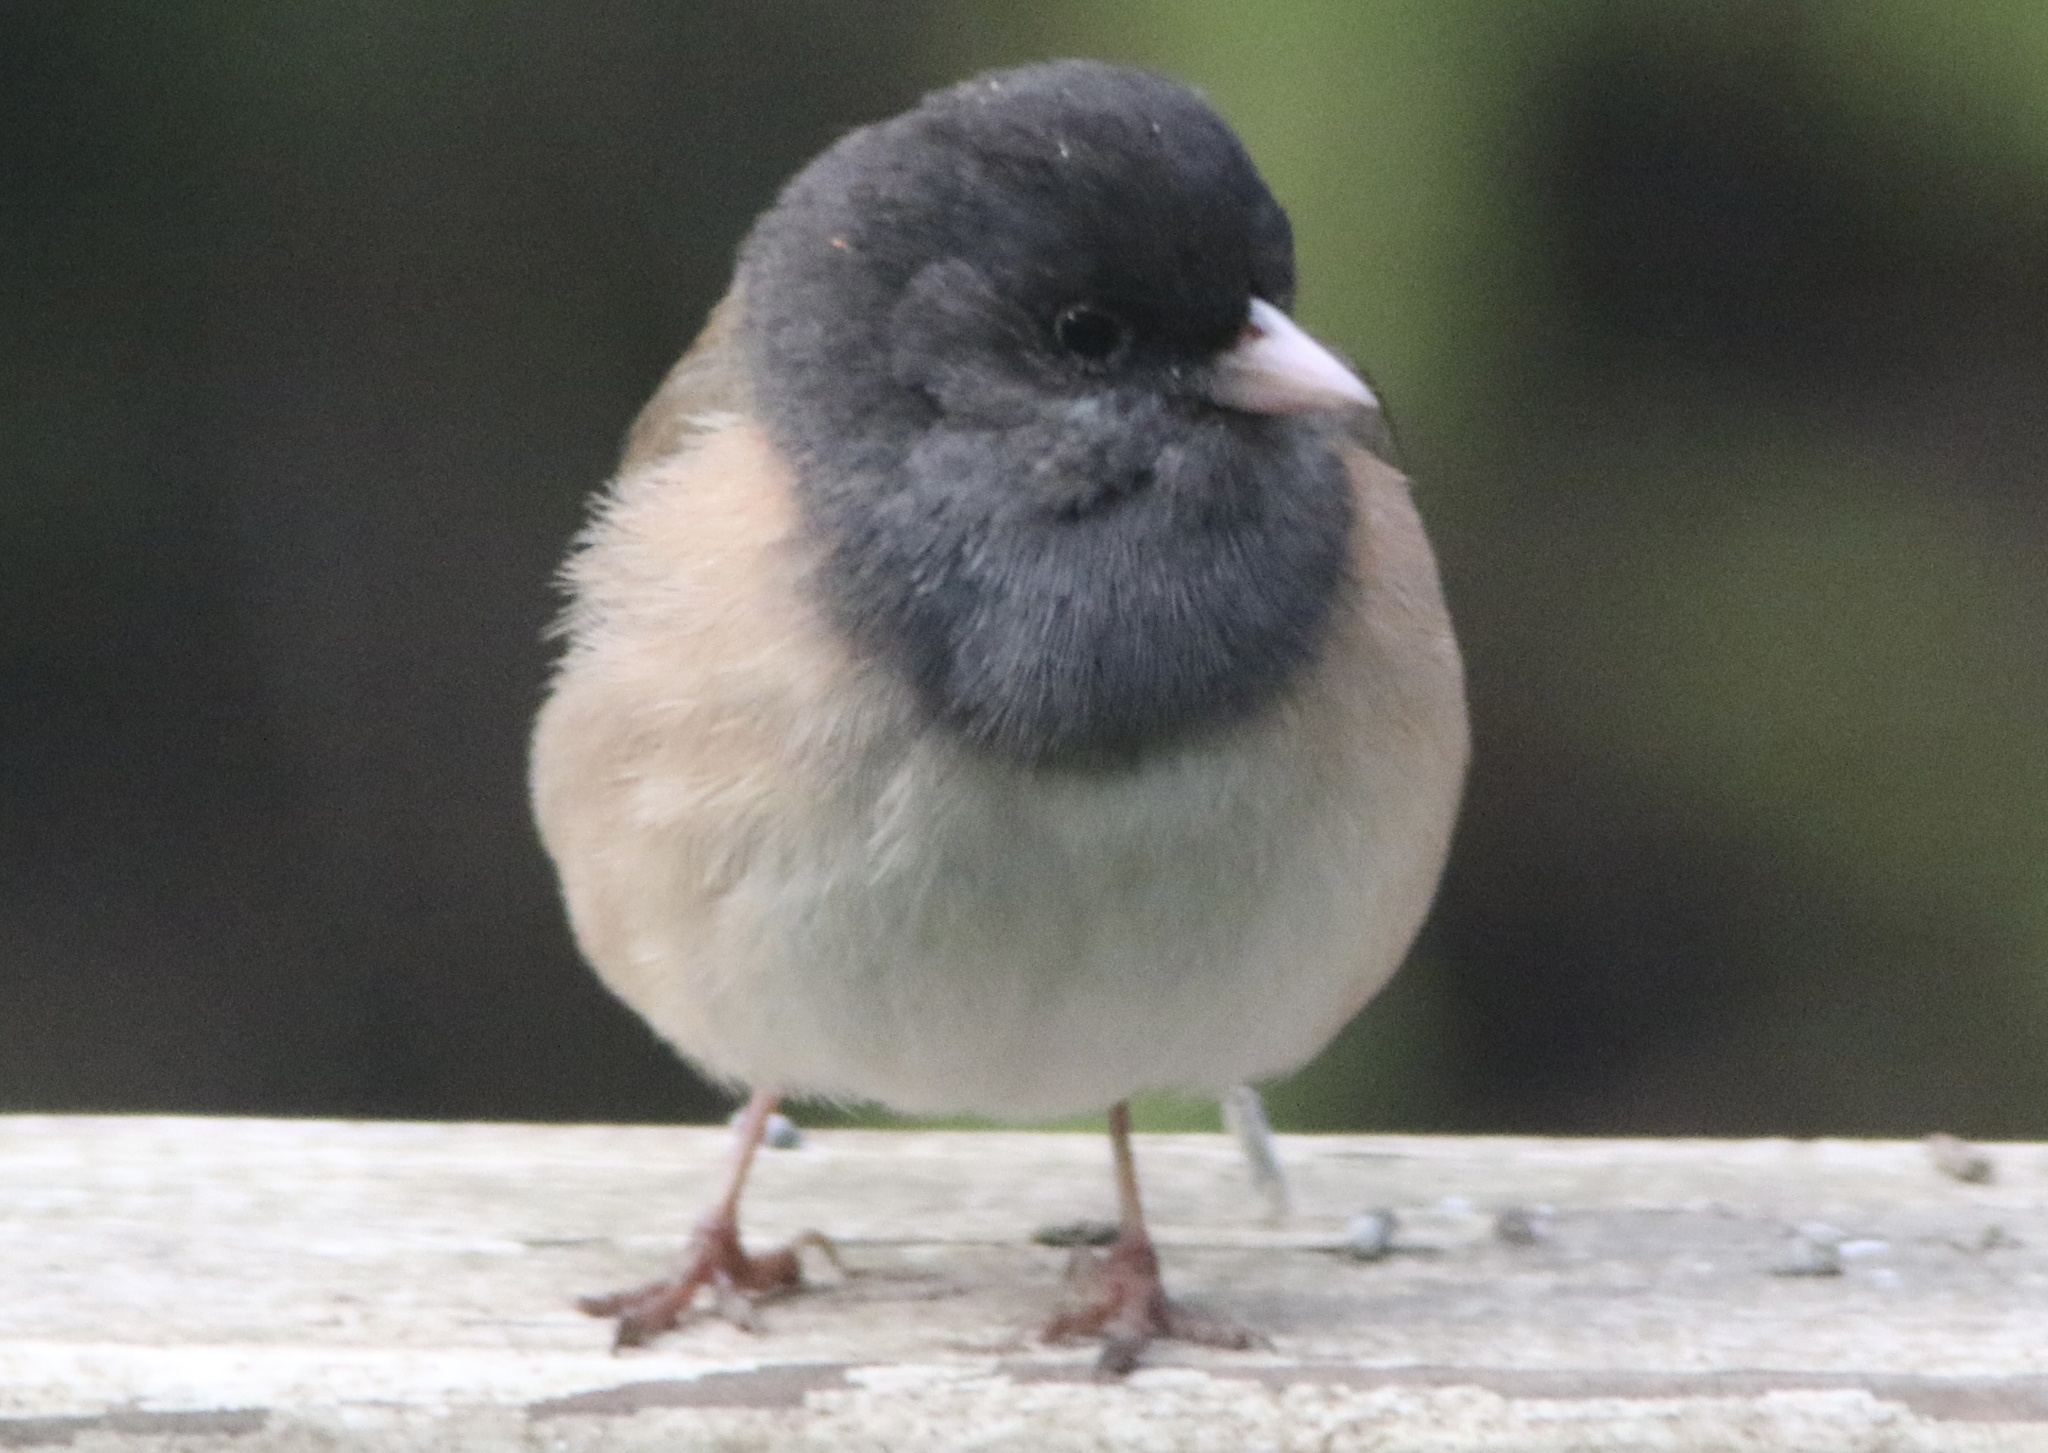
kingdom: Animalia
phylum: Chordata
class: Aves
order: Passeriformes
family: Passerellidae
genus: Junco
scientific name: Junco hyemalis
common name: Dark-eyed junco
